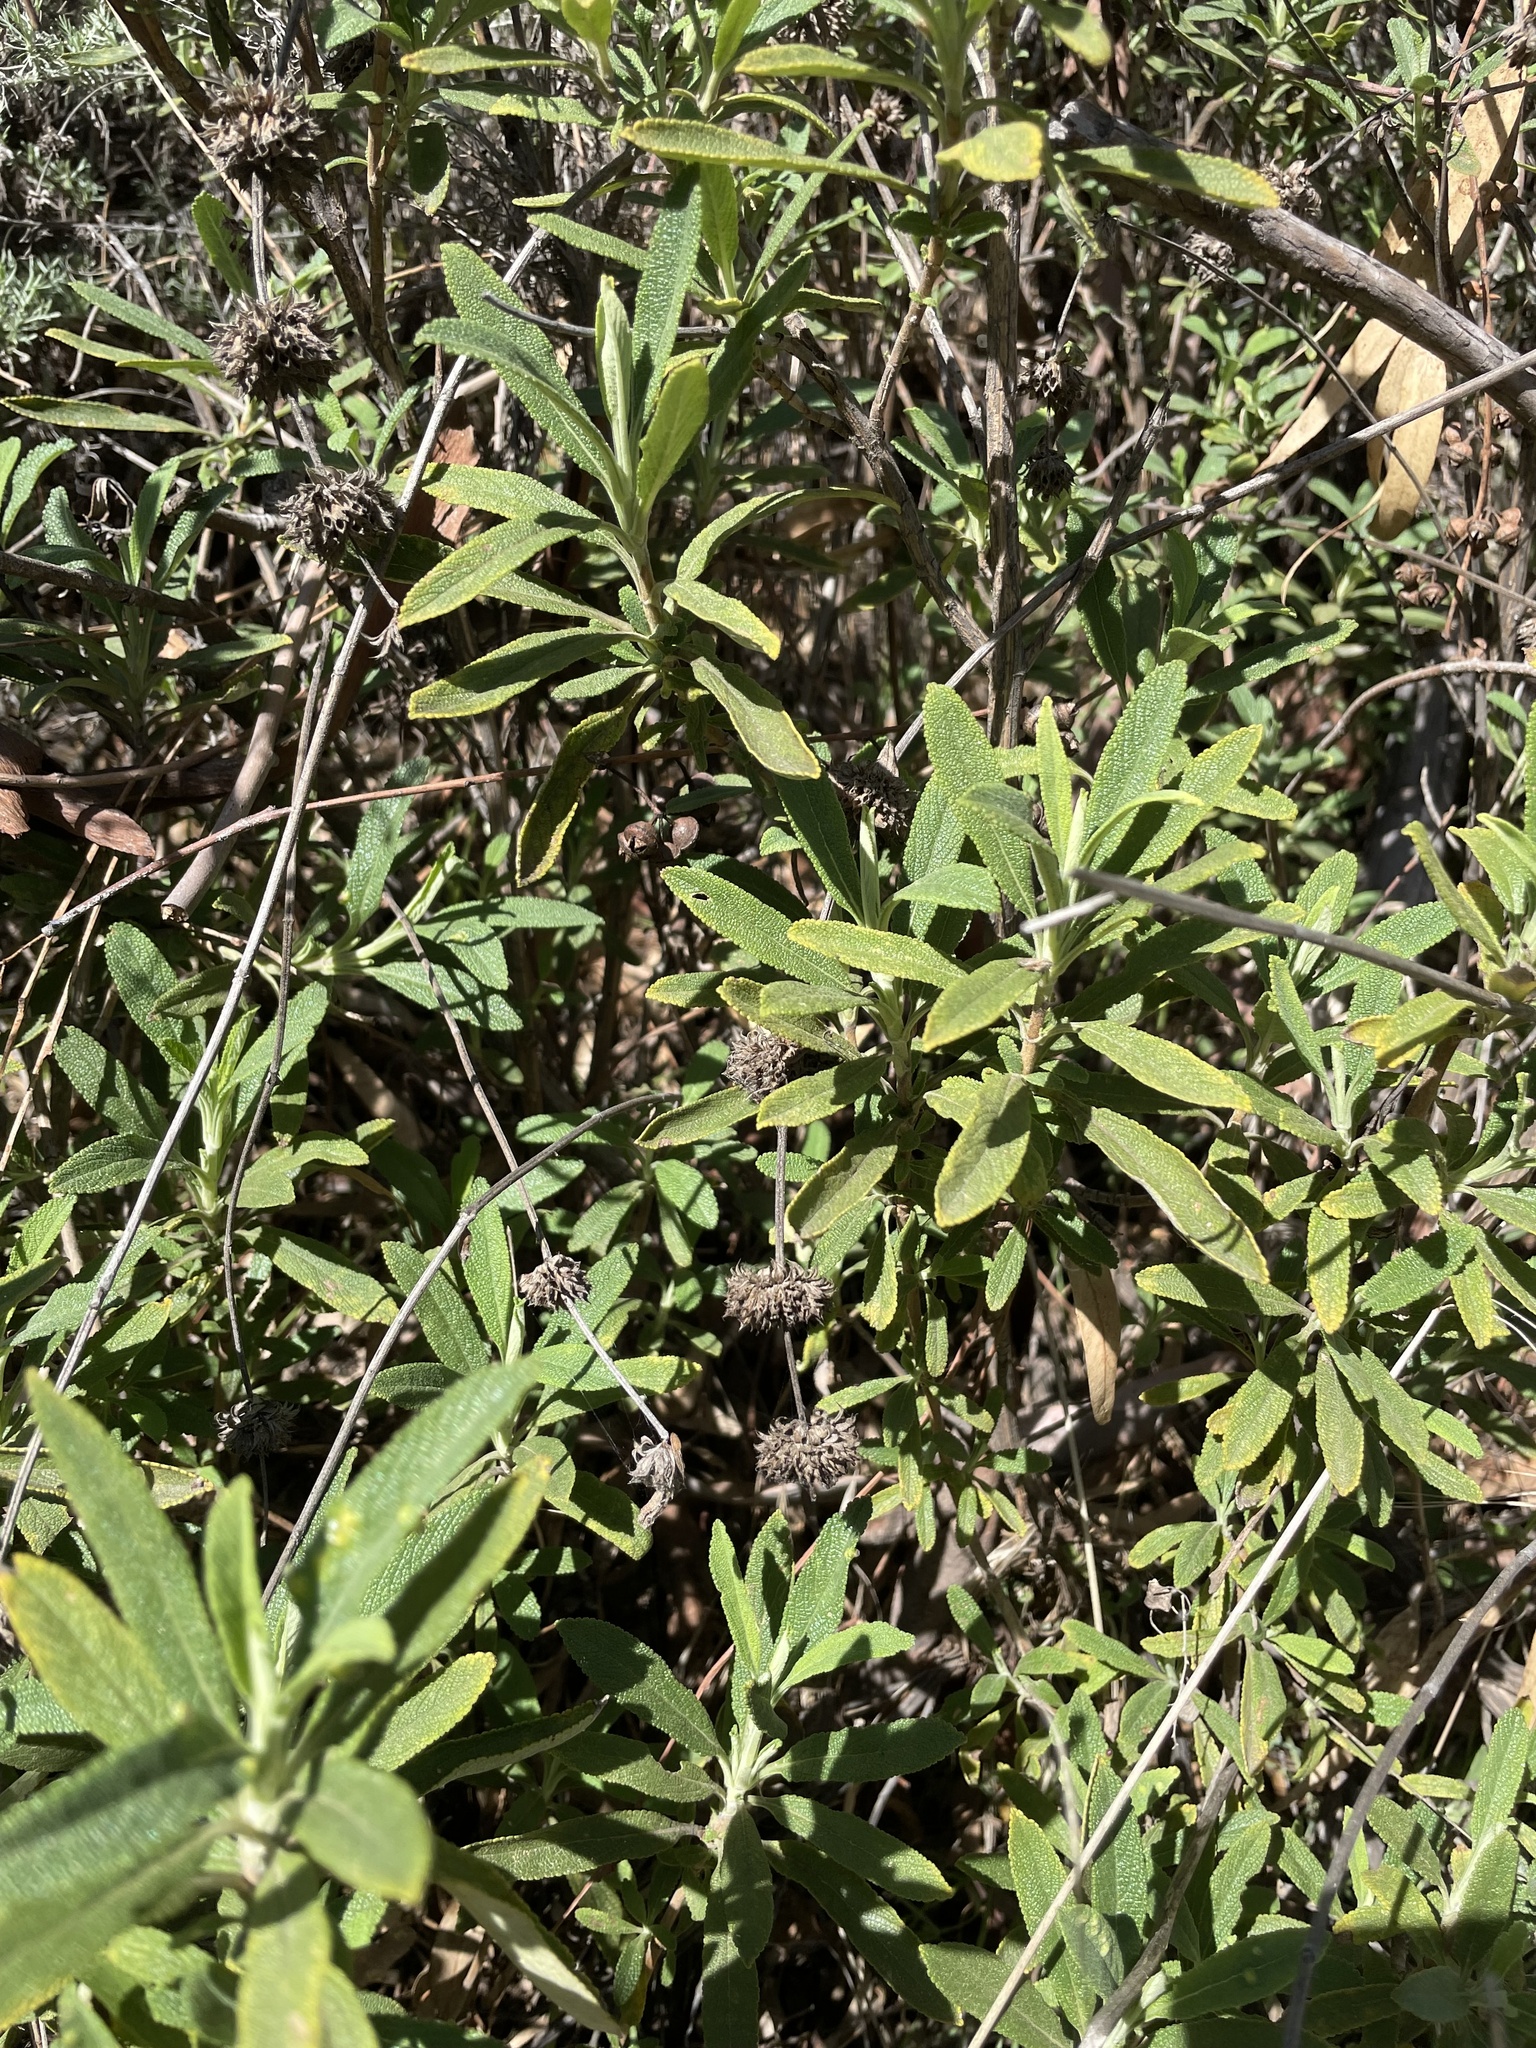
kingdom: Plantae
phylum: Tracheophyta
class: Magnoliopsida
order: Lamiales
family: Lamiaceae
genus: Salvia
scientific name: Salvia mellifera
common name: Black sage
